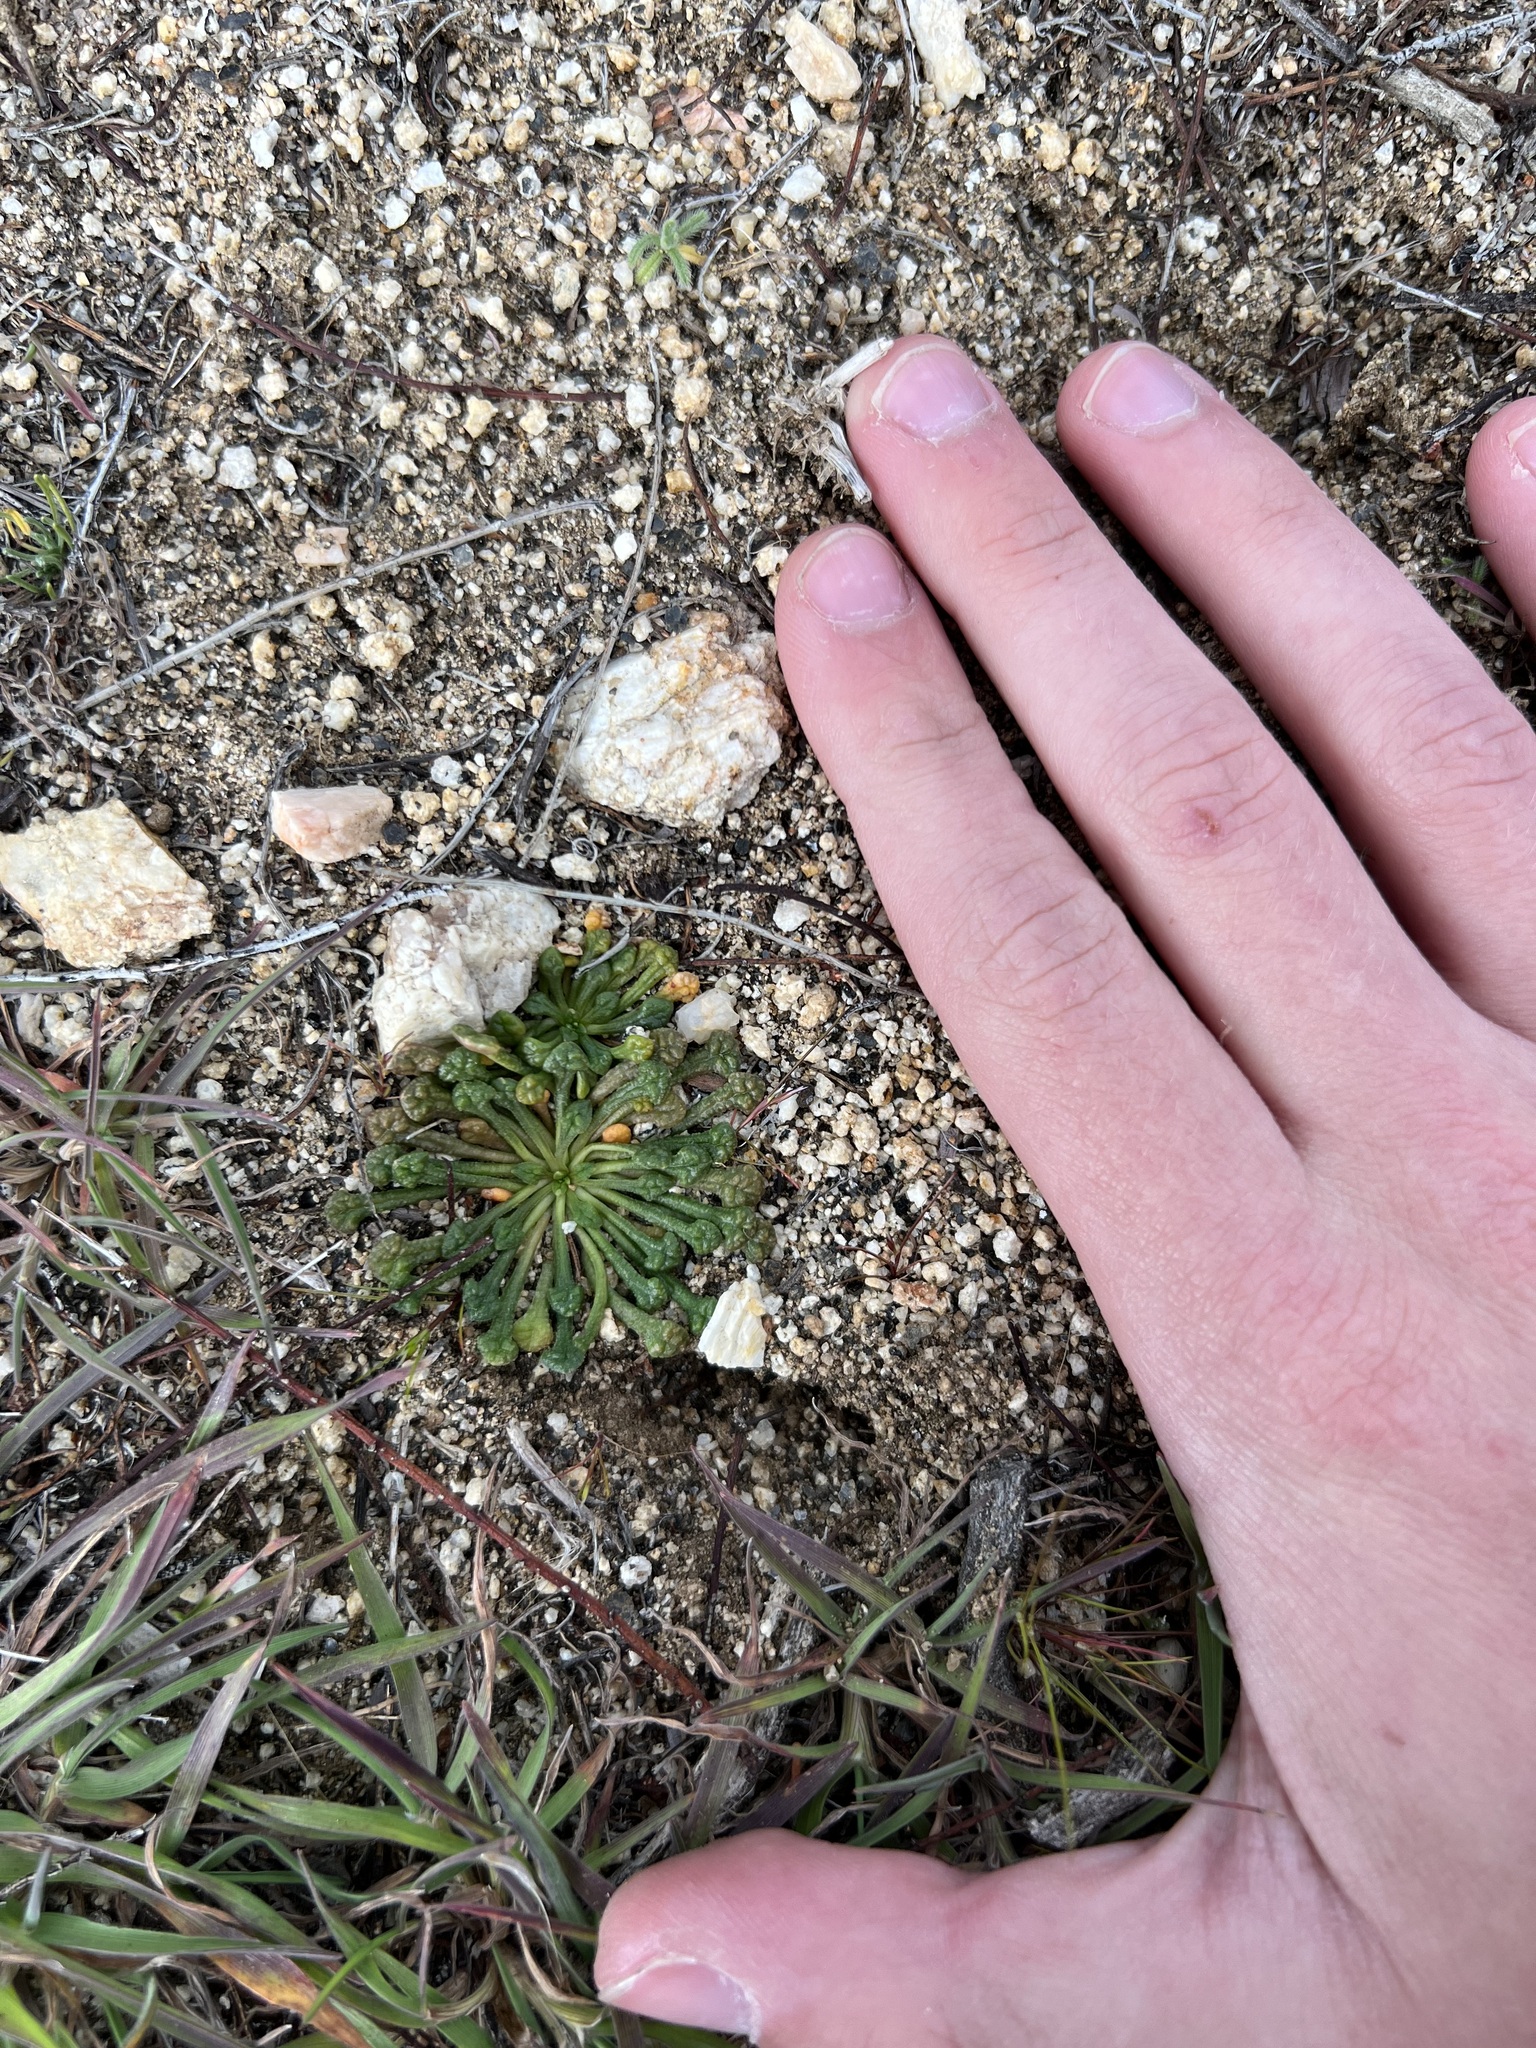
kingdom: Plantae
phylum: Tracheophyta
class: Magnoliopsida
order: Caryophyllales
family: Montiaceae
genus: Calyptridium
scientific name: Calyptridium monandrum
